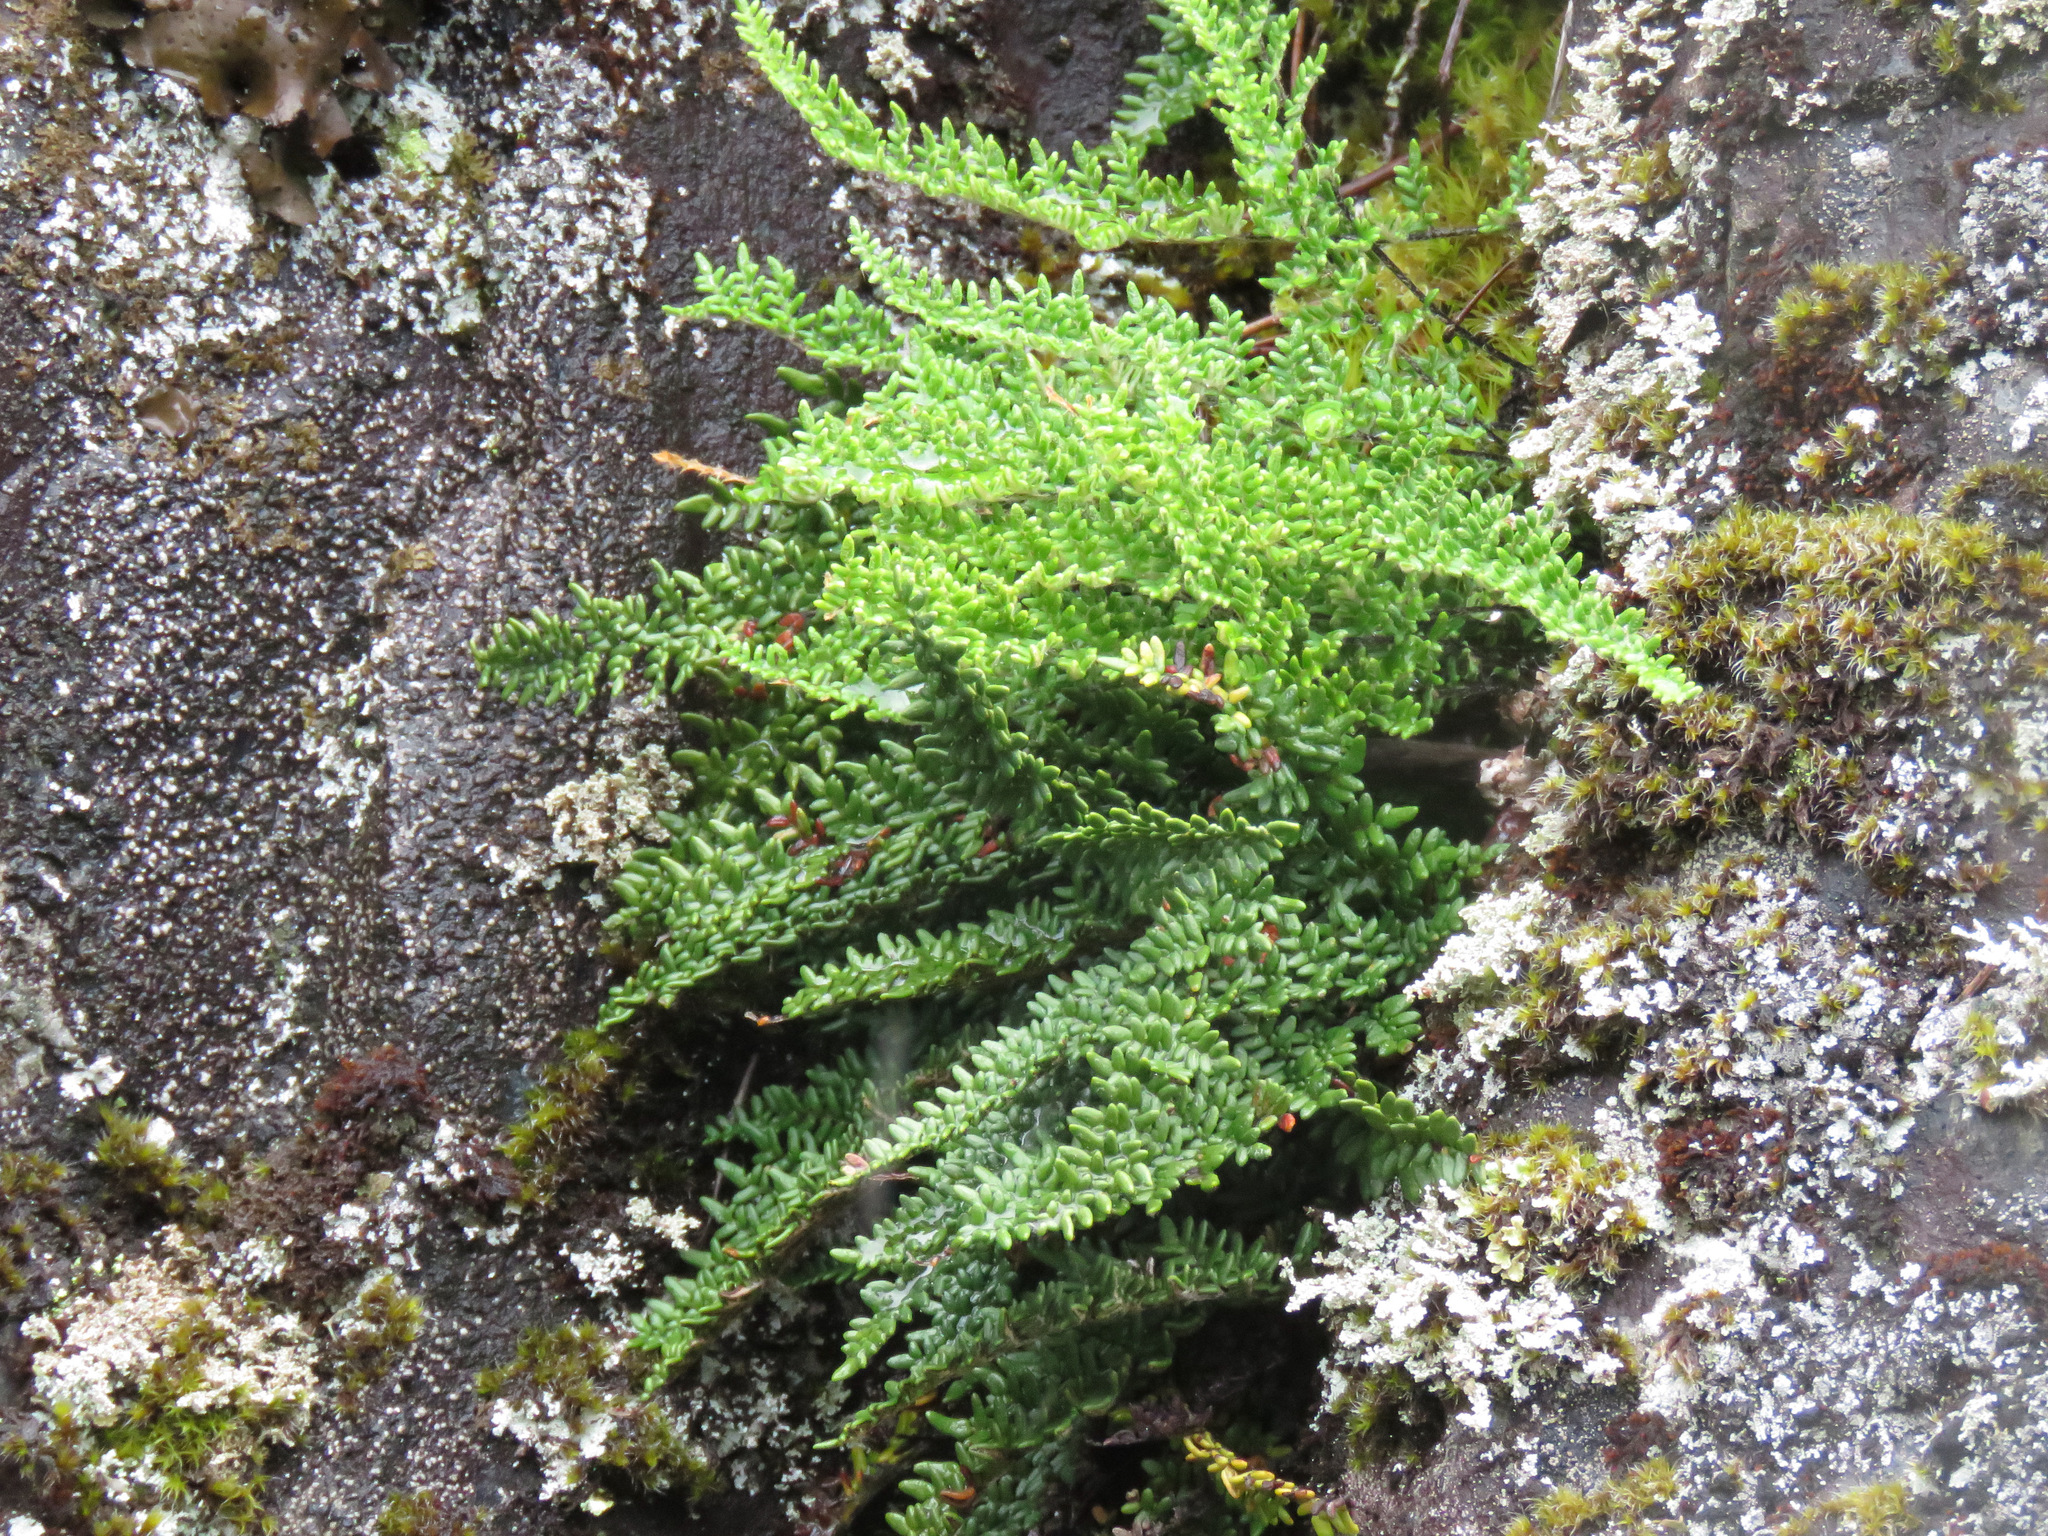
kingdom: Plantae
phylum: Tracheophyta
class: Polypodiopsida
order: Polypodiales
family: Pteridaceae
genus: Myriopteris
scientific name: Myriopteris gracillima
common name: Lace fern
